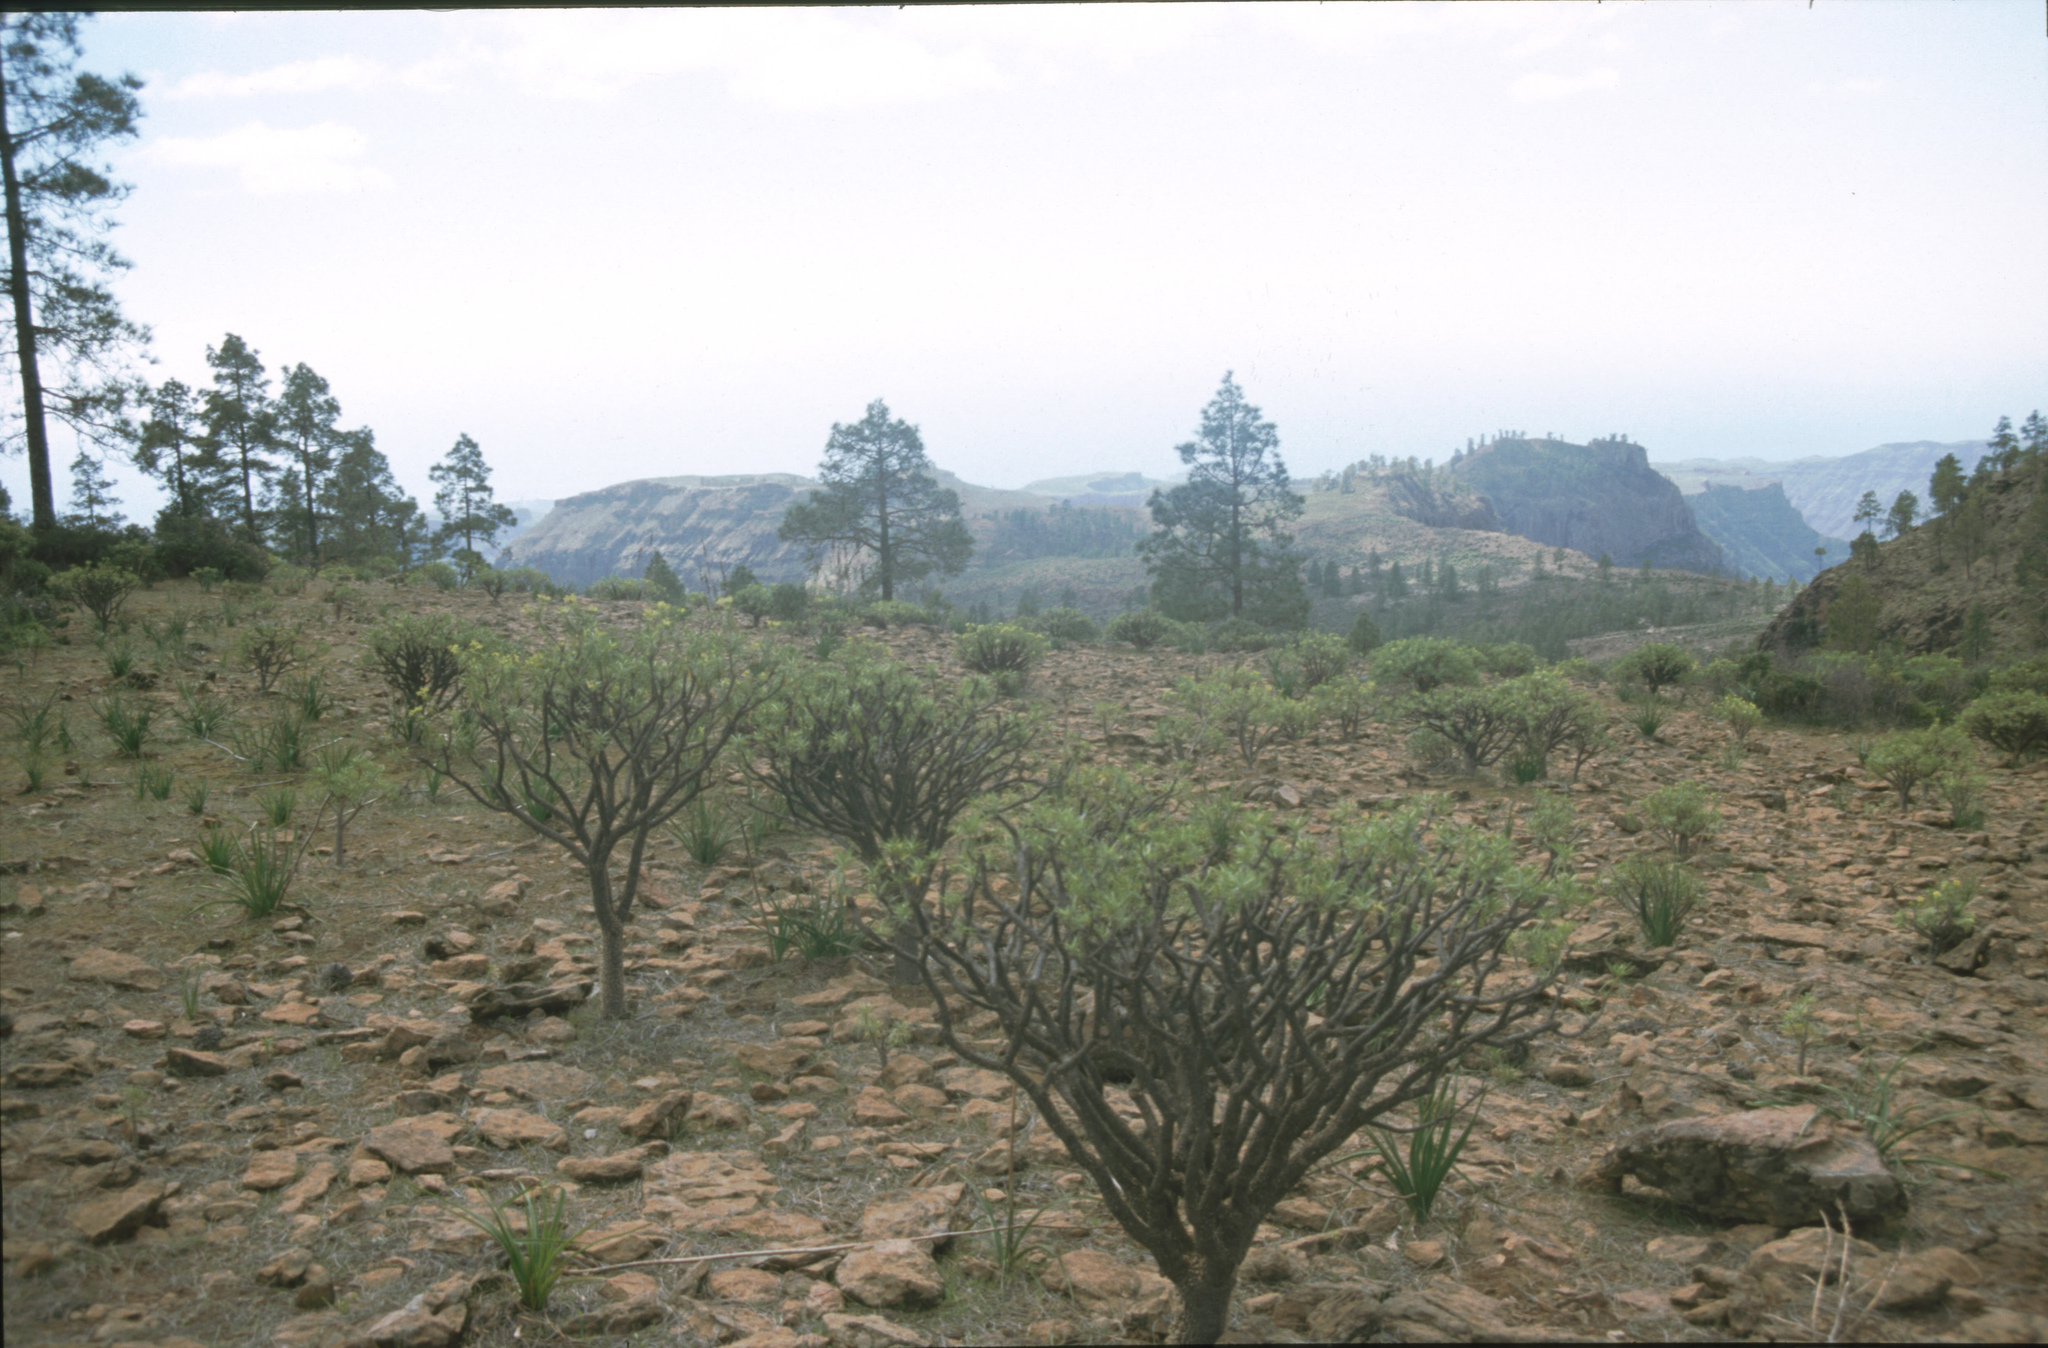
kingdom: Plantae
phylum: Tracheophyta
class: Magnoliopsida
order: Malpighiales
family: Euphorbiaceae
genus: Euphorbia
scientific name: Euphorbia regis-jubae
